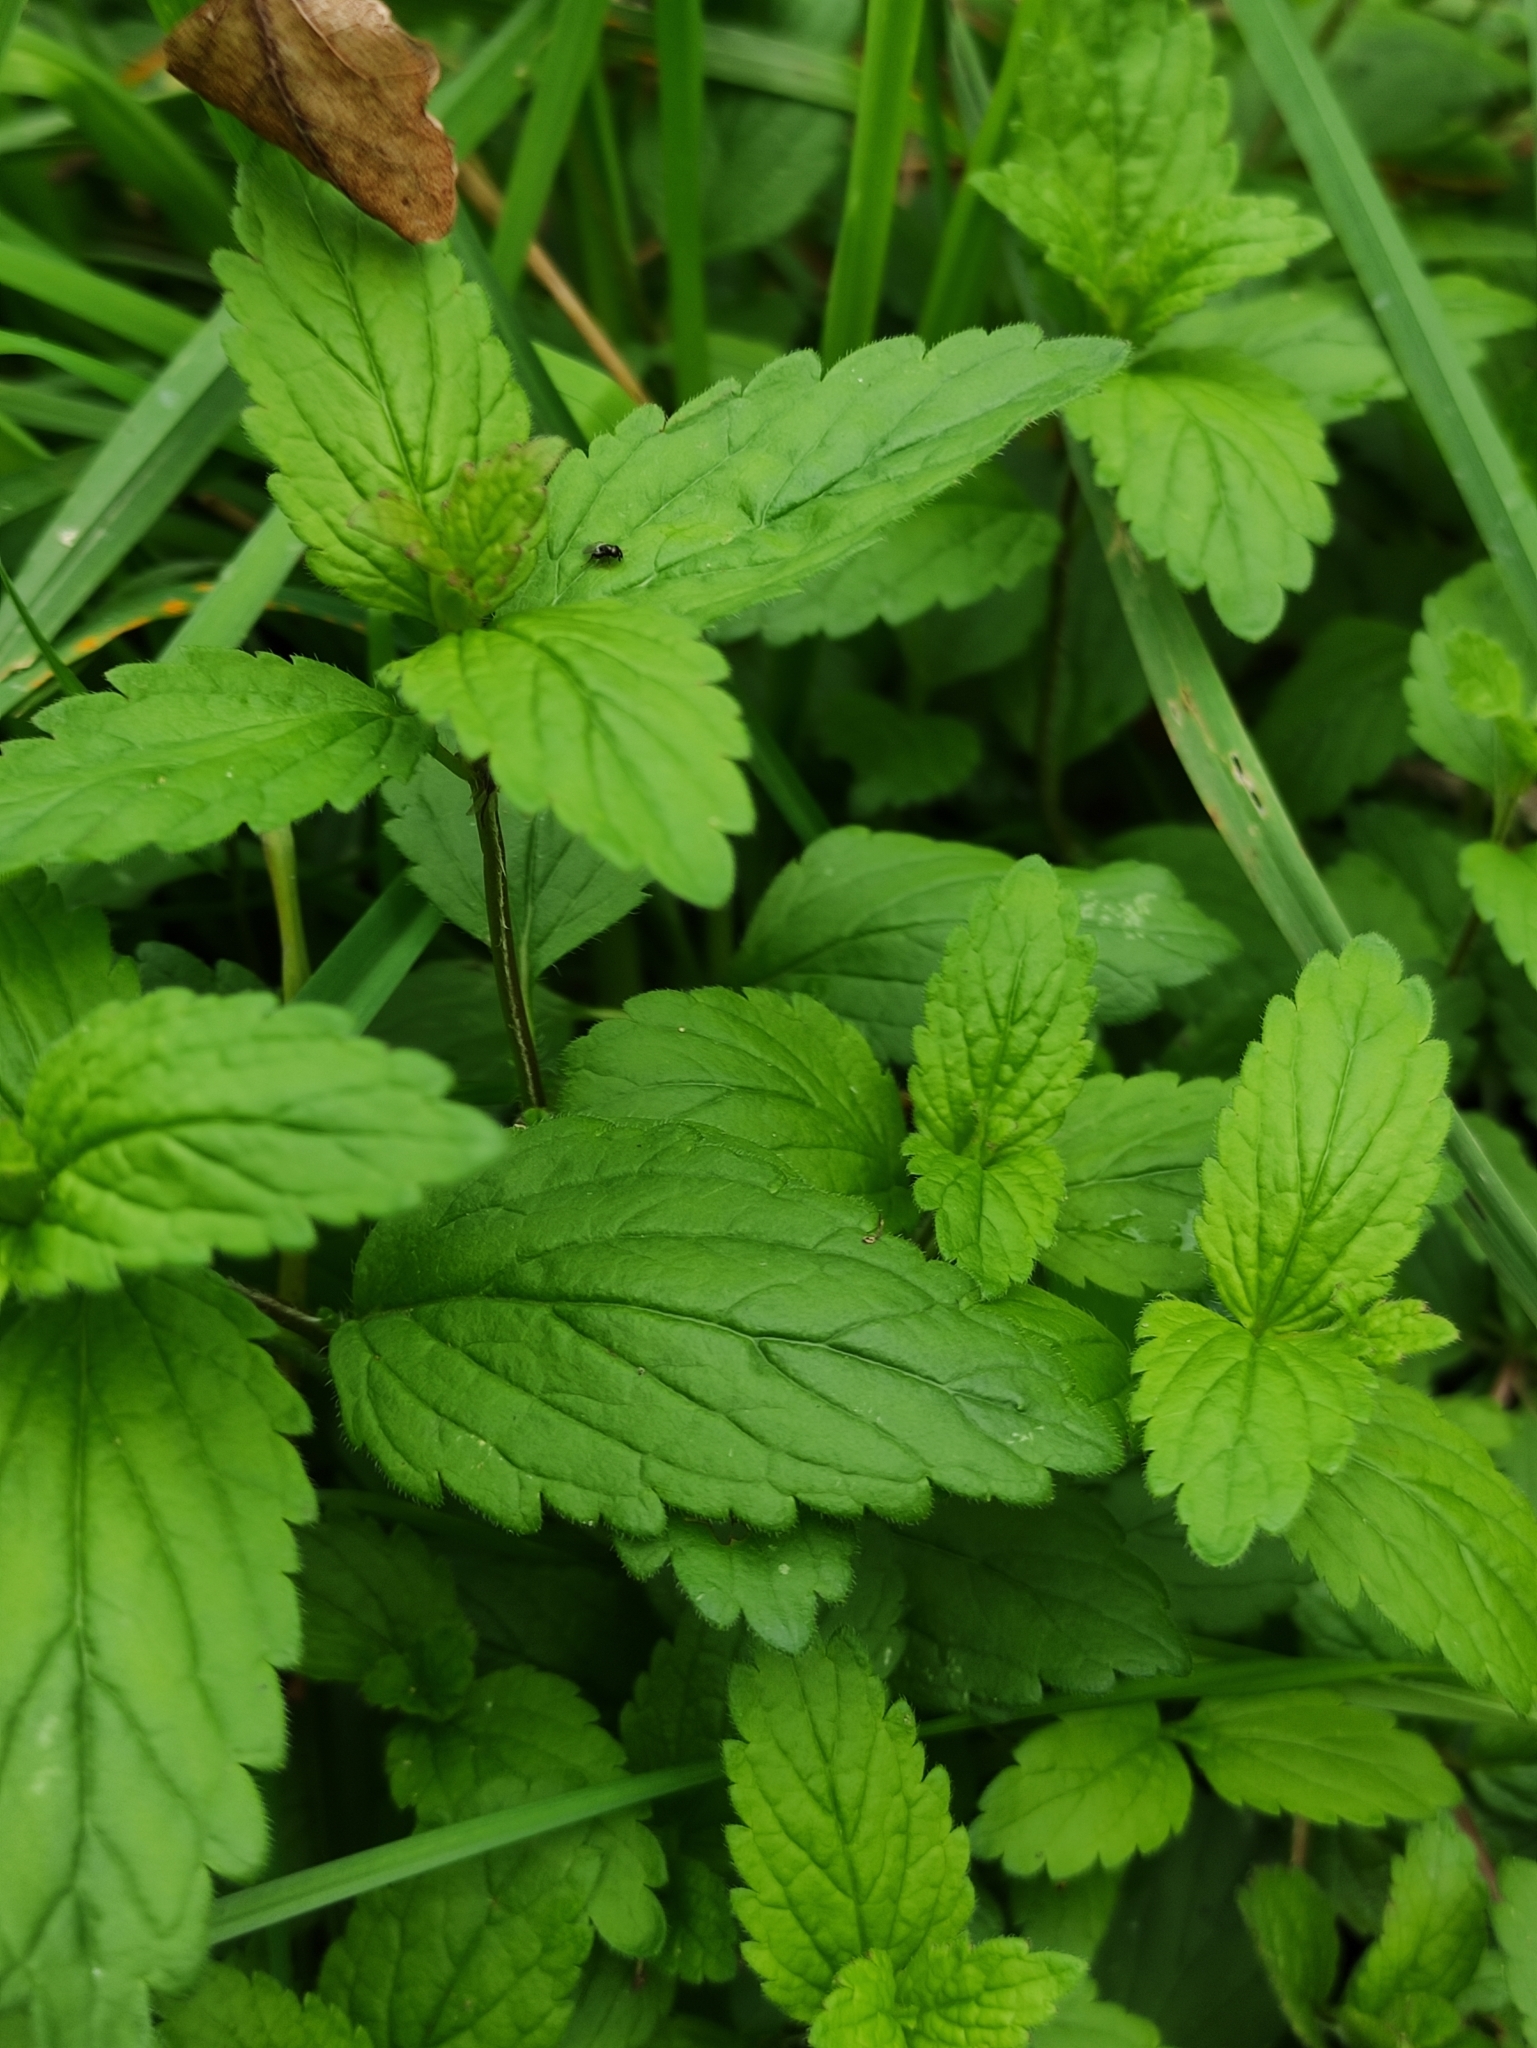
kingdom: Plantae
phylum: Tracheophyta
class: Magnoliopsida
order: Lamiales
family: Plantaginaceae
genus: Veronica
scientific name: Veronica chamaedrys
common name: Germander speedwell
